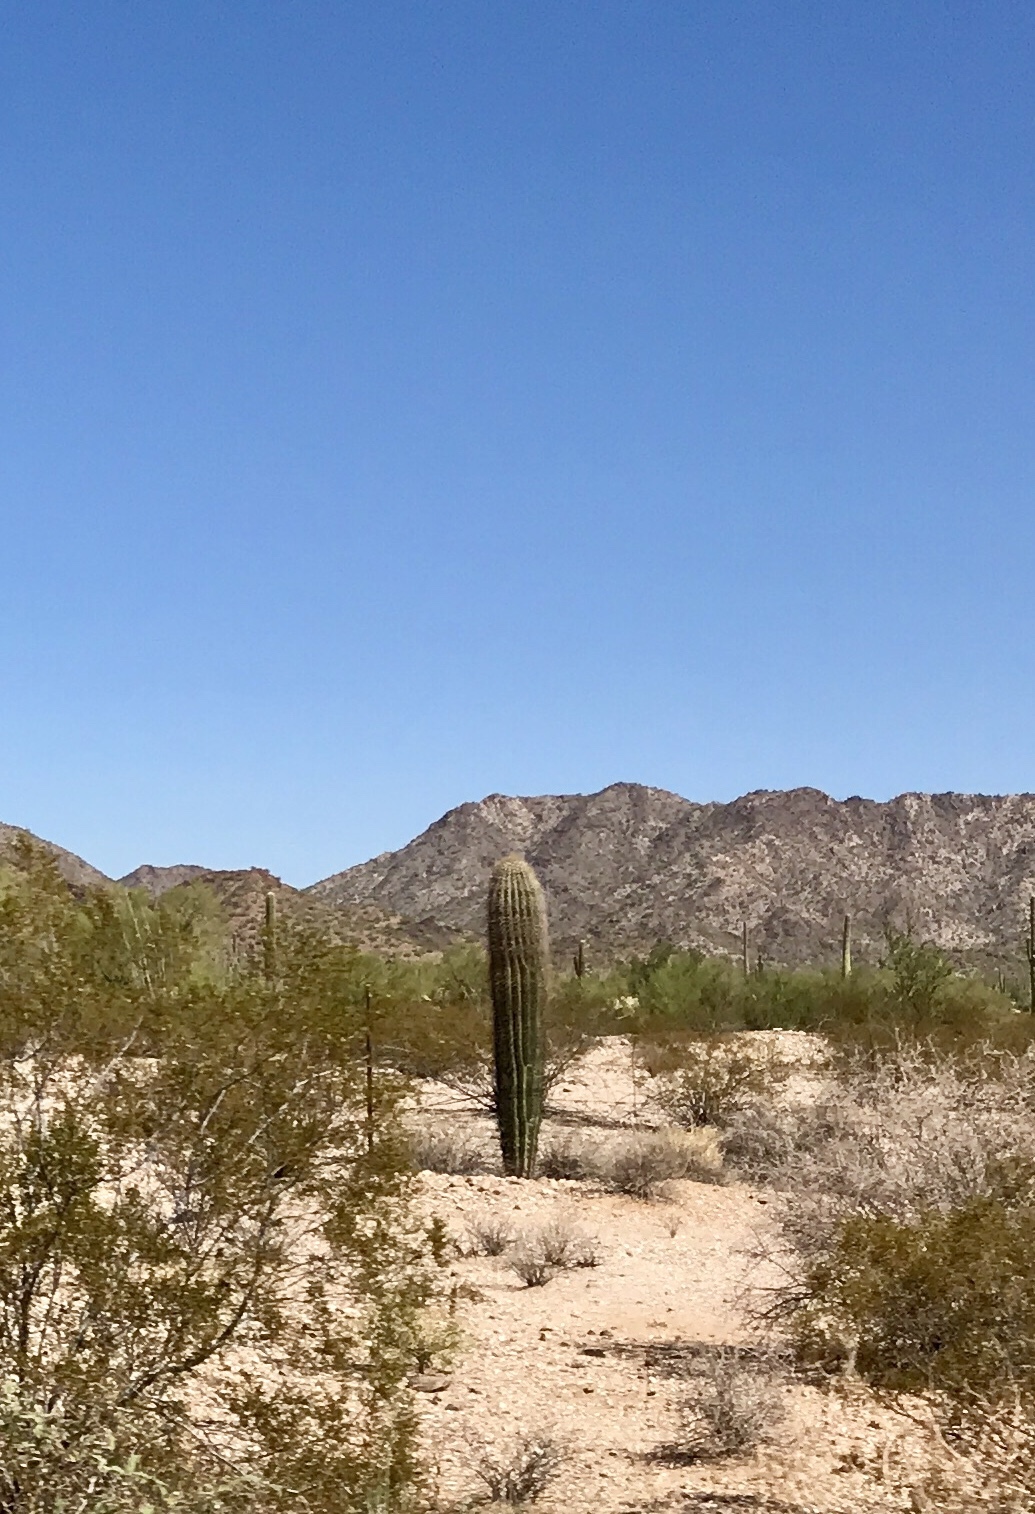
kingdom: Plantae
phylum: Tracheophyta
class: Magnoliopsida
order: Caryophyllales
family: Cactaceae
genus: Carnegiea
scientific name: Carnegiea gigantea
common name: Saguaro
